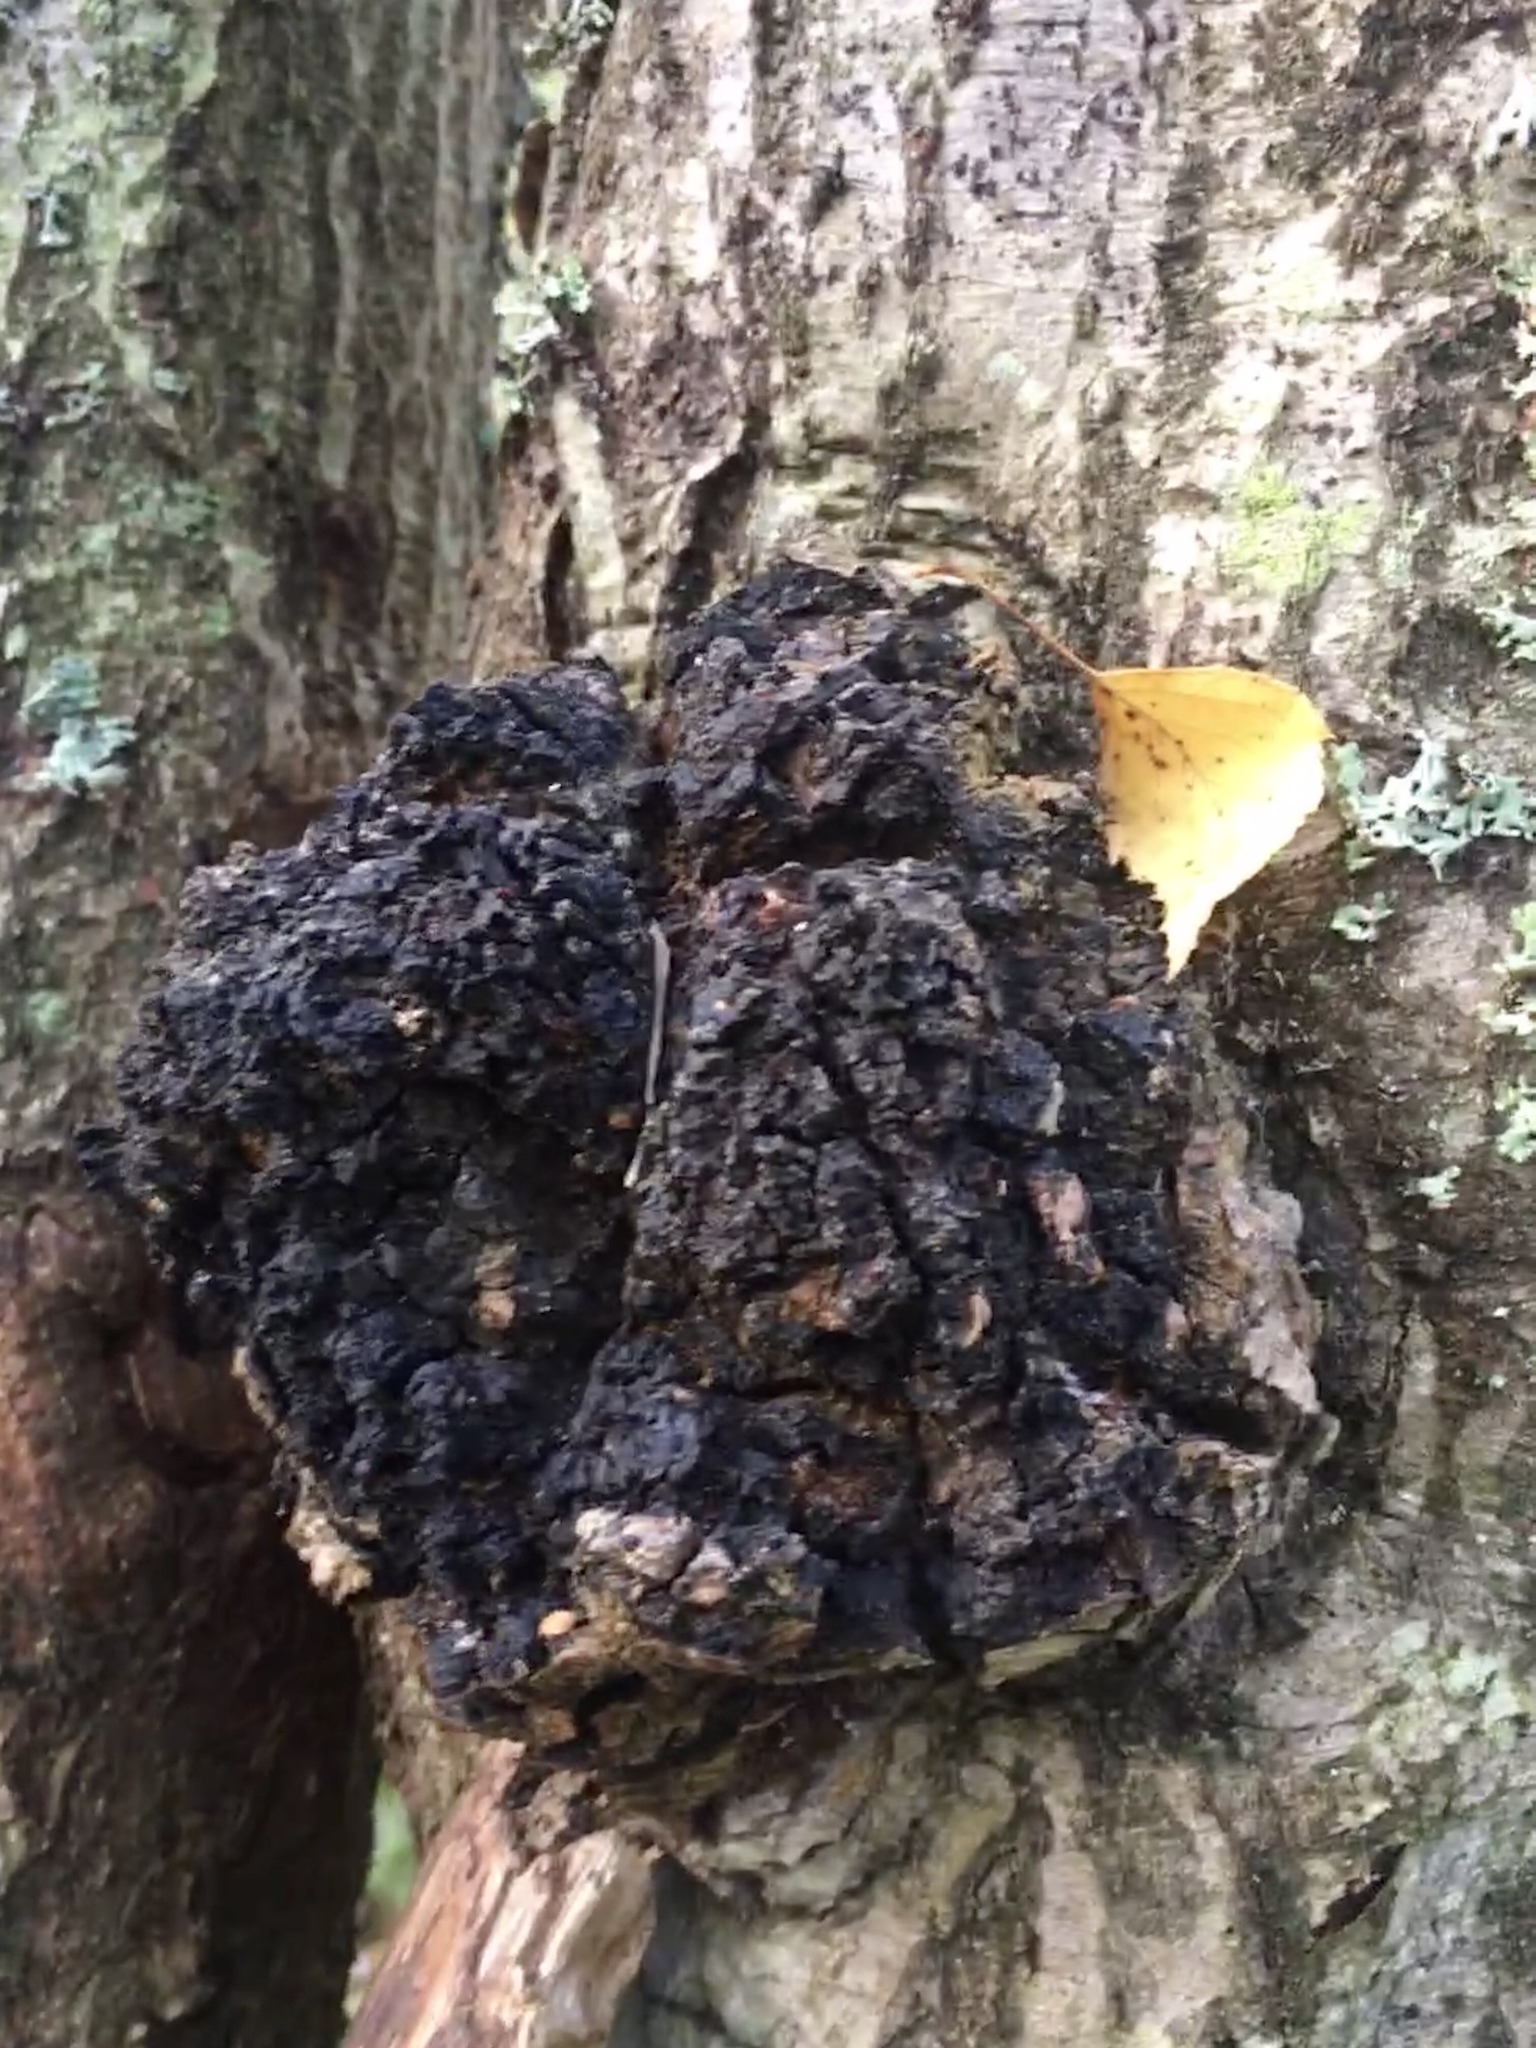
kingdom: Fungi
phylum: Basidiomycota
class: Agaricomycetes
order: Hymenochaetales
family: Hymenochaetaceae
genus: Inonotus
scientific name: Inonotus obliquus
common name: Chaga
